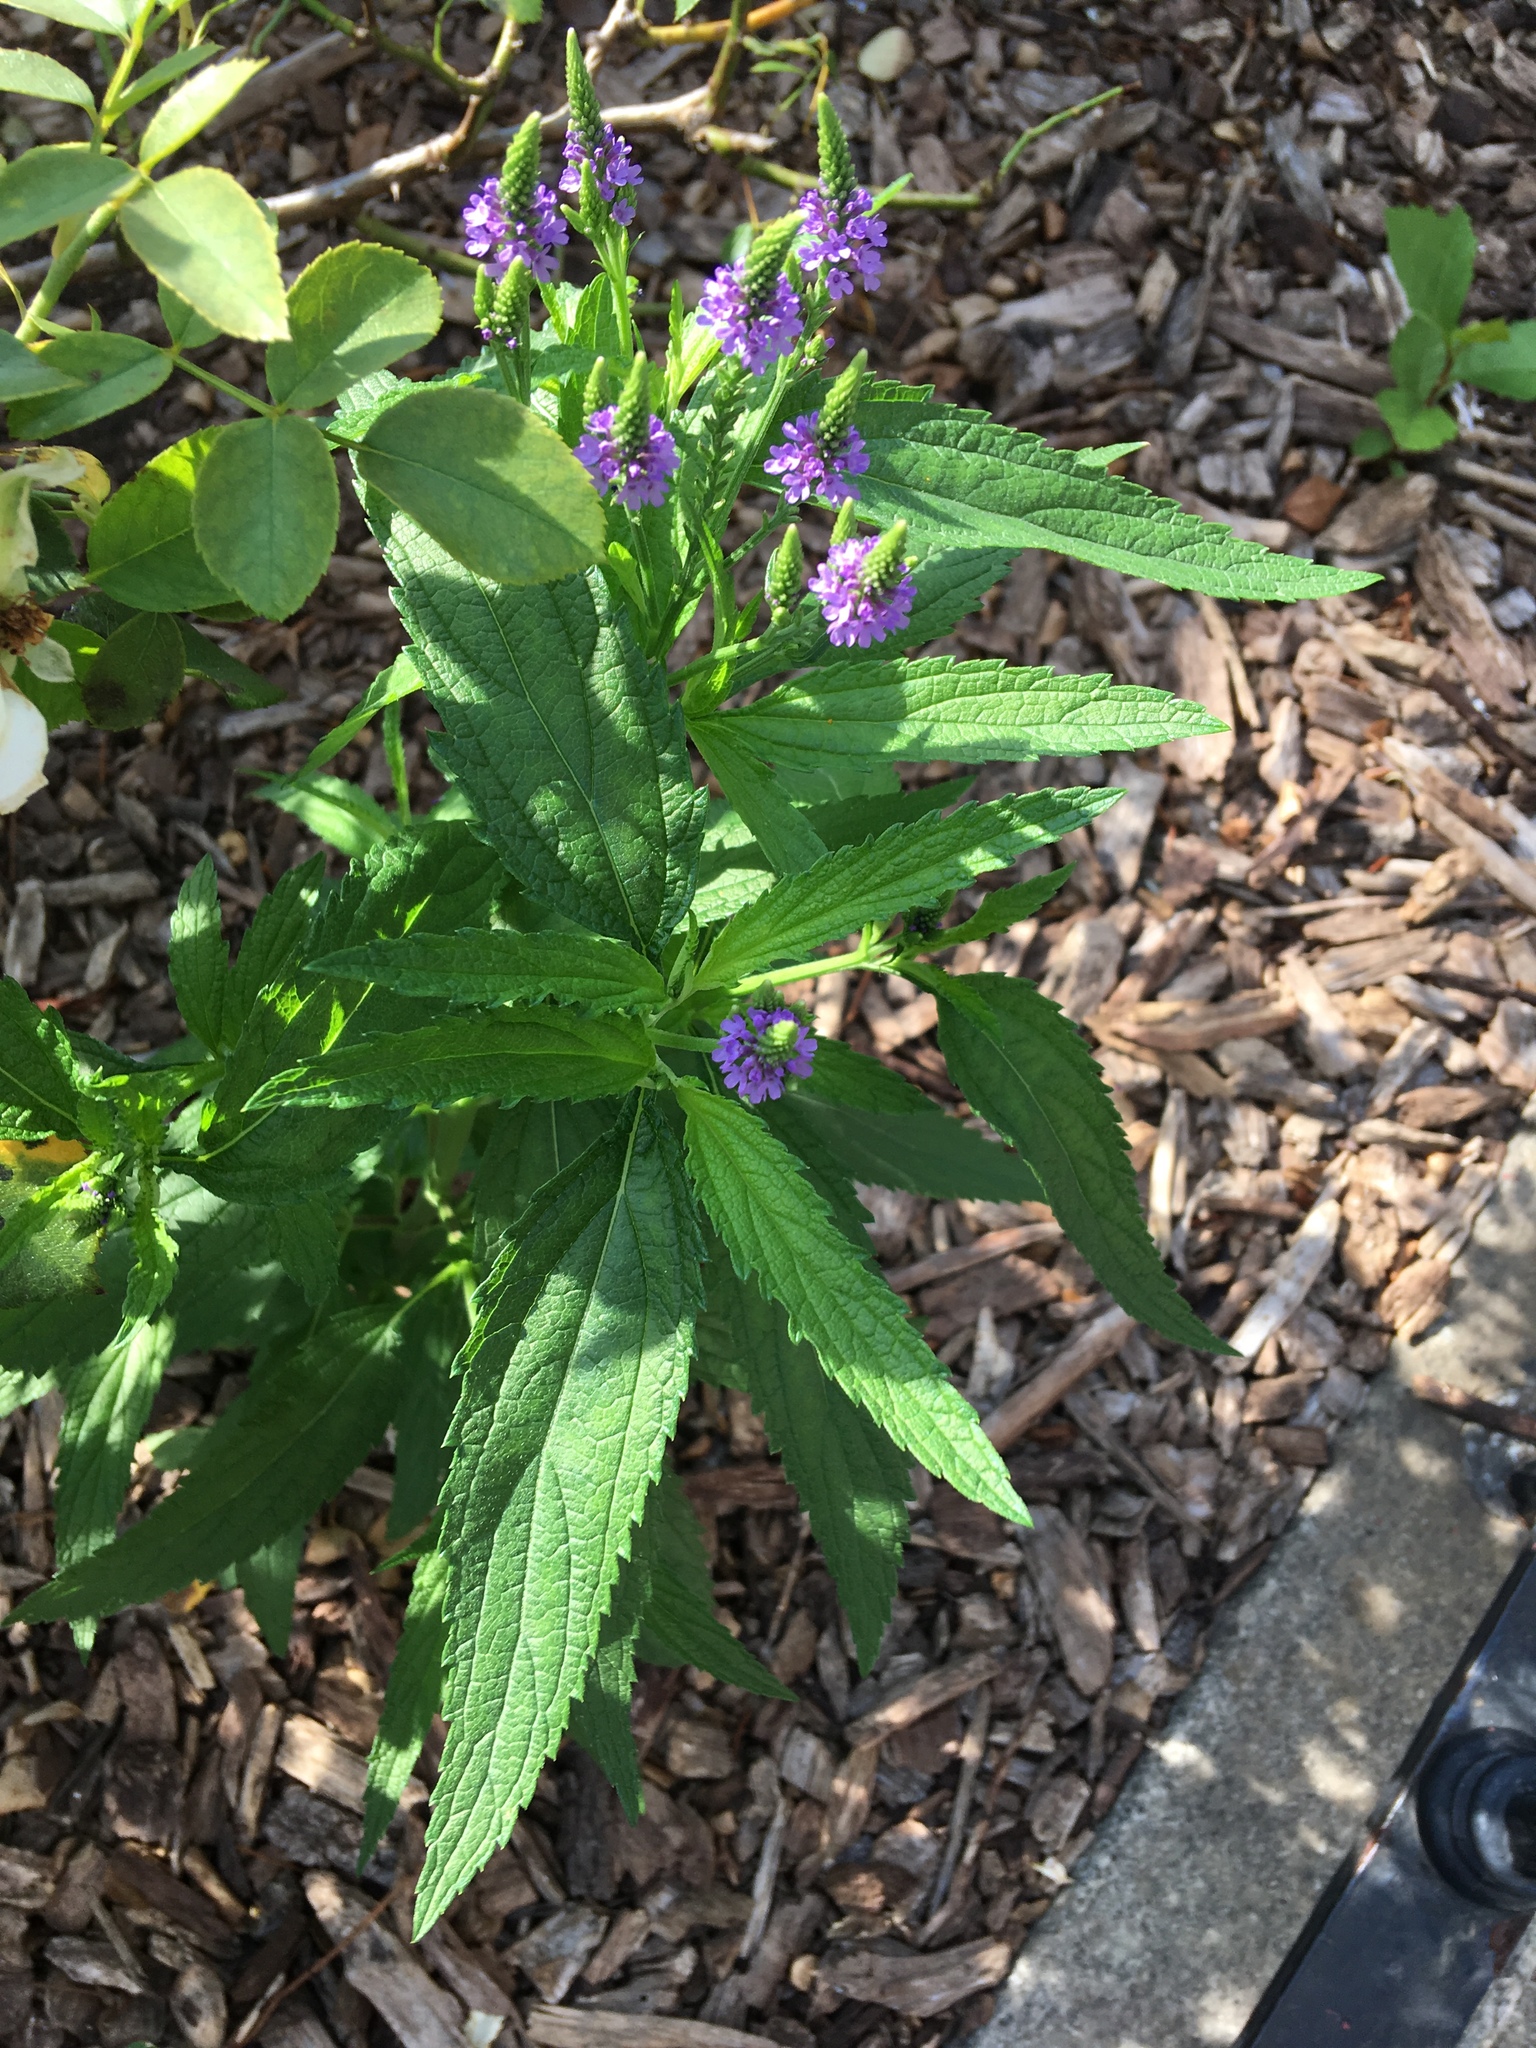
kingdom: Plantae
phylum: Tracheophyta
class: Magnoliopsida
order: Lamiales
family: Verbenaceae
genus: Verbena
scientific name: Verbena hastata
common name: American blue vervain
